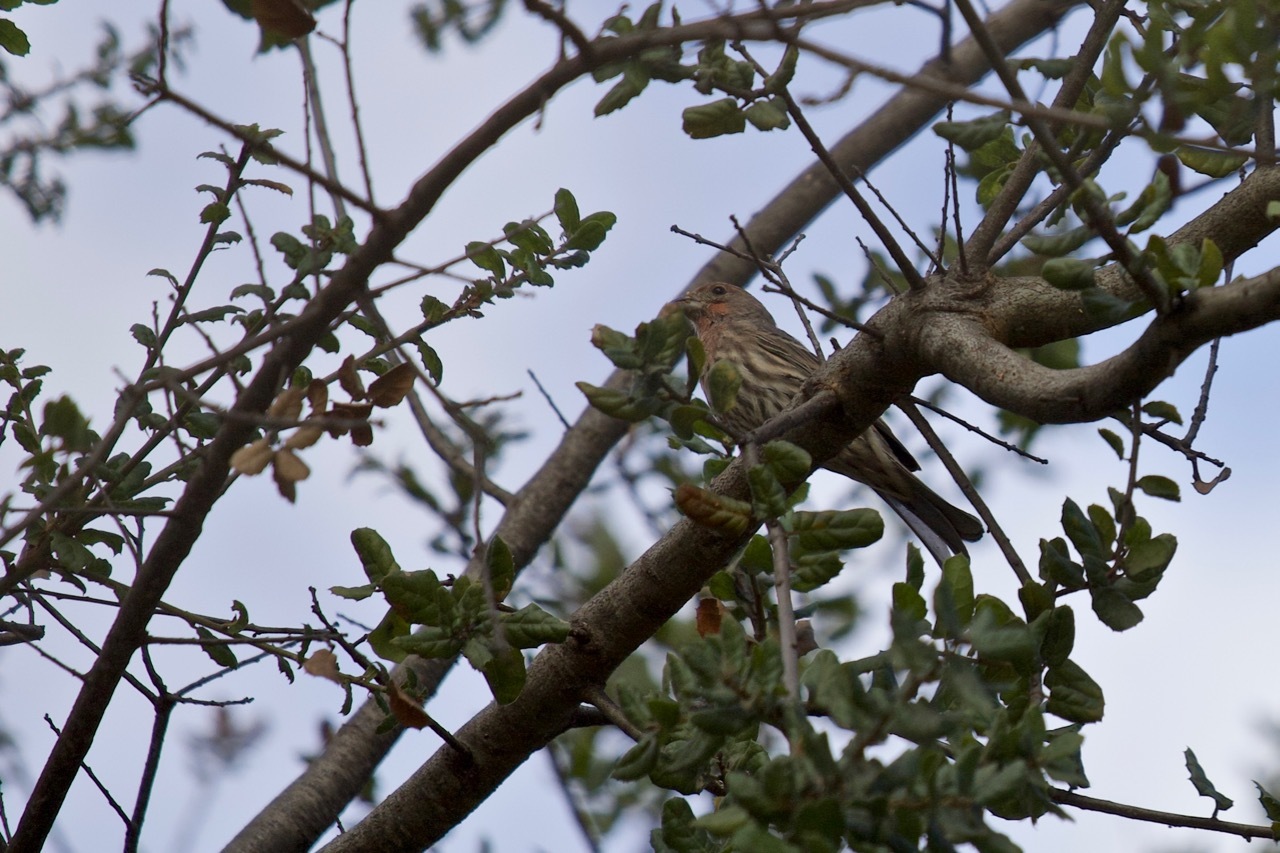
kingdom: Animalia
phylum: Chordata
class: Aves
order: Passeriformes
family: Fringillidae
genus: Haemorhous
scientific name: Haemorhous mexicanus
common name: House finch
